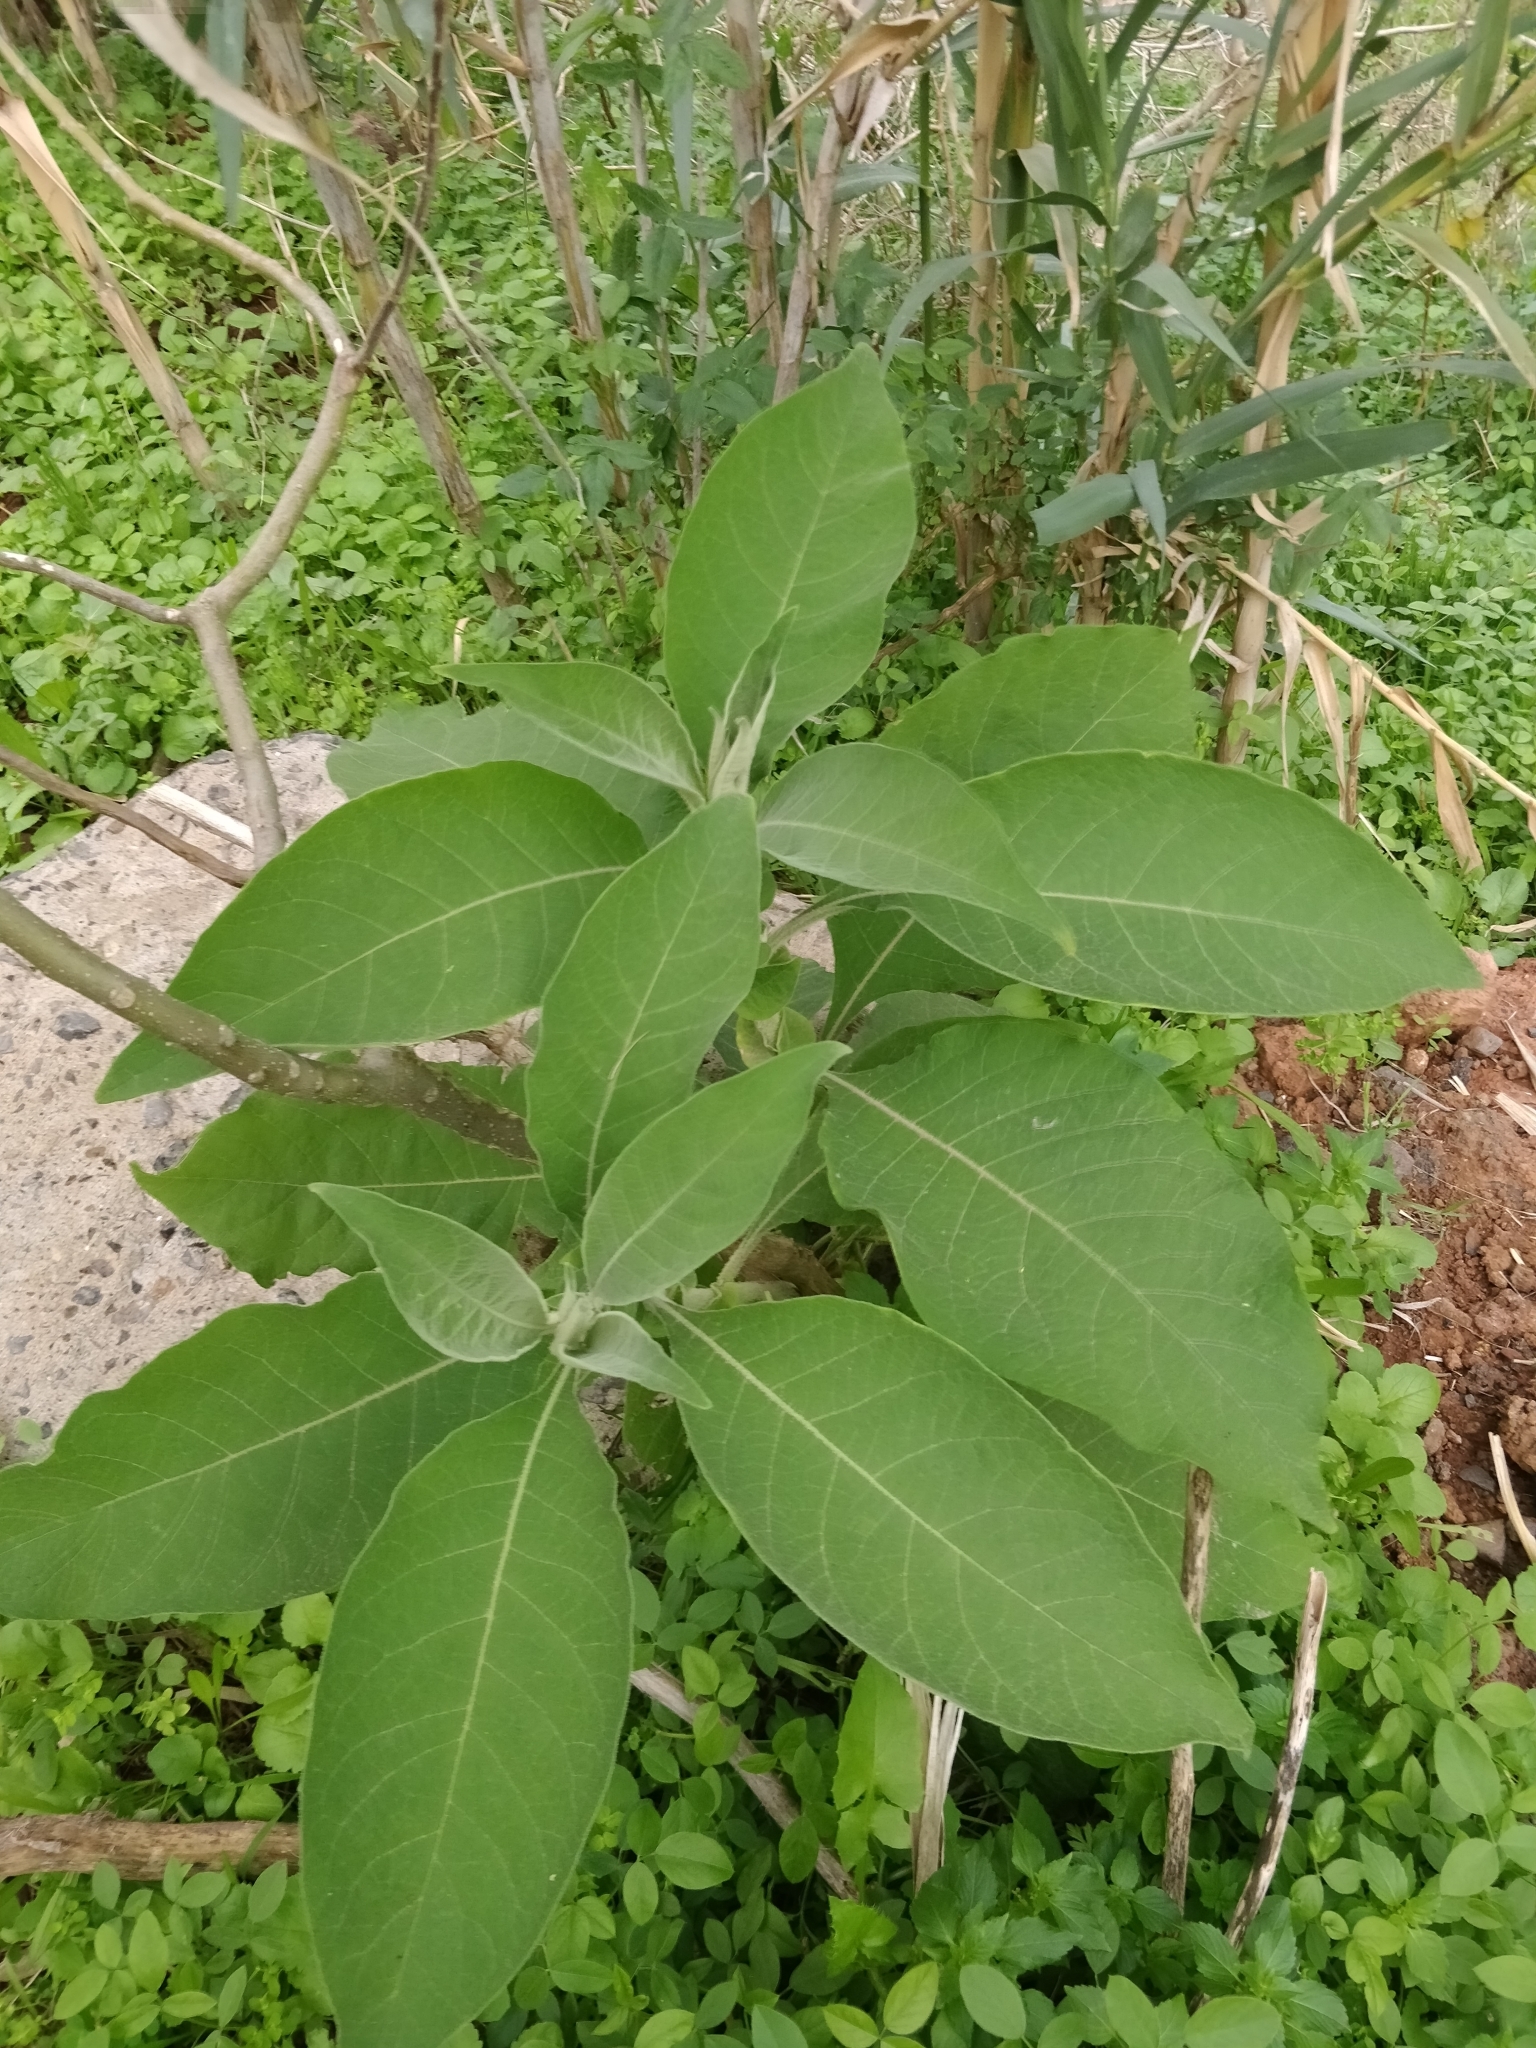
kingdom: Plantae
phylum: Tracheophyta
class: Magnoliopsida
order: Solanales
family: Solanaceae
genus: Solanum
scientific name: Solanum mauritianum
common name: Earleaf nightshade
